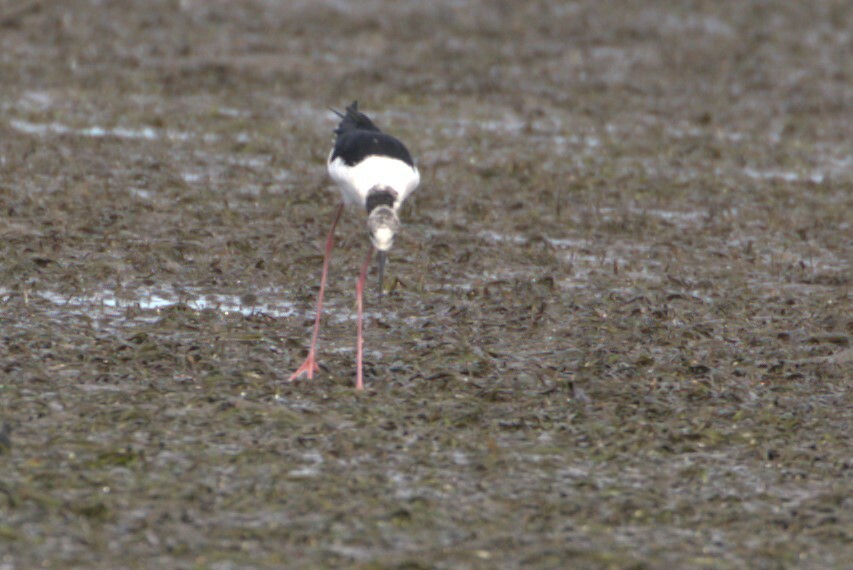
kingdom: Animalia
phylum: Chordata
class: Aves
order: Charadriiformes
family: Recurvirostridae
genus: Himantopus
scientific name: Himantopus leucocephalus
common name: White-headed stilt
